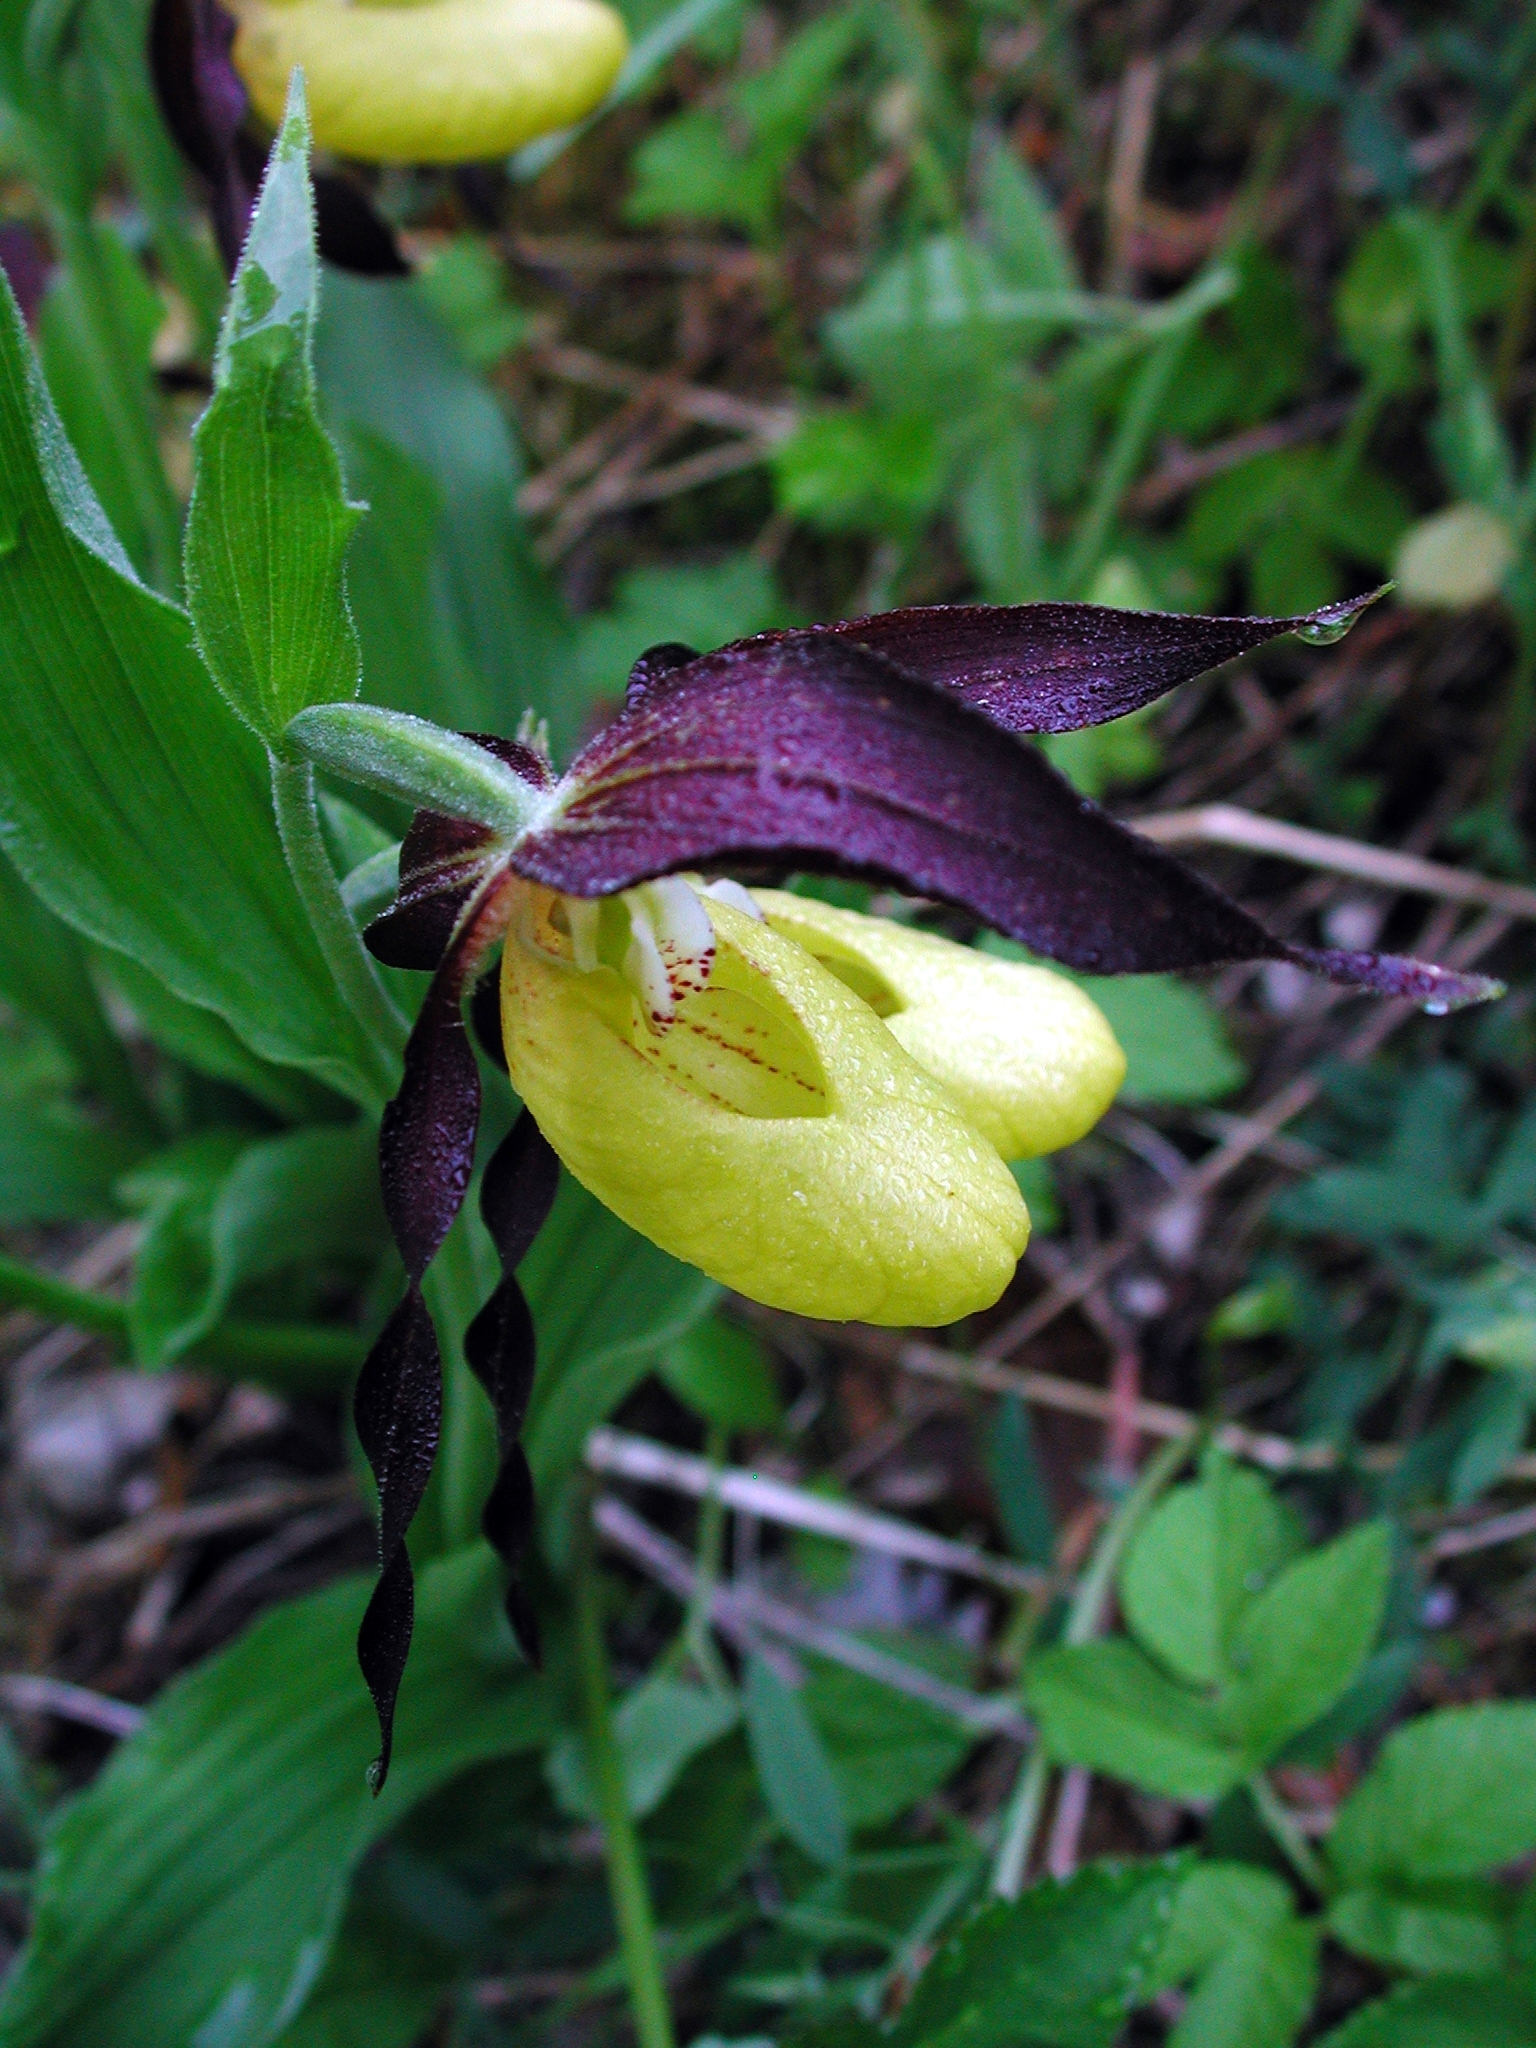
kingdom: Plantae
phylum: Tracheophyta
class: Liliopsida
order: Asparagales
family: Orchidaceae
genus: Cypripedium
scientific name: Cypripedium calceolus
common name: Lady's-slipper
